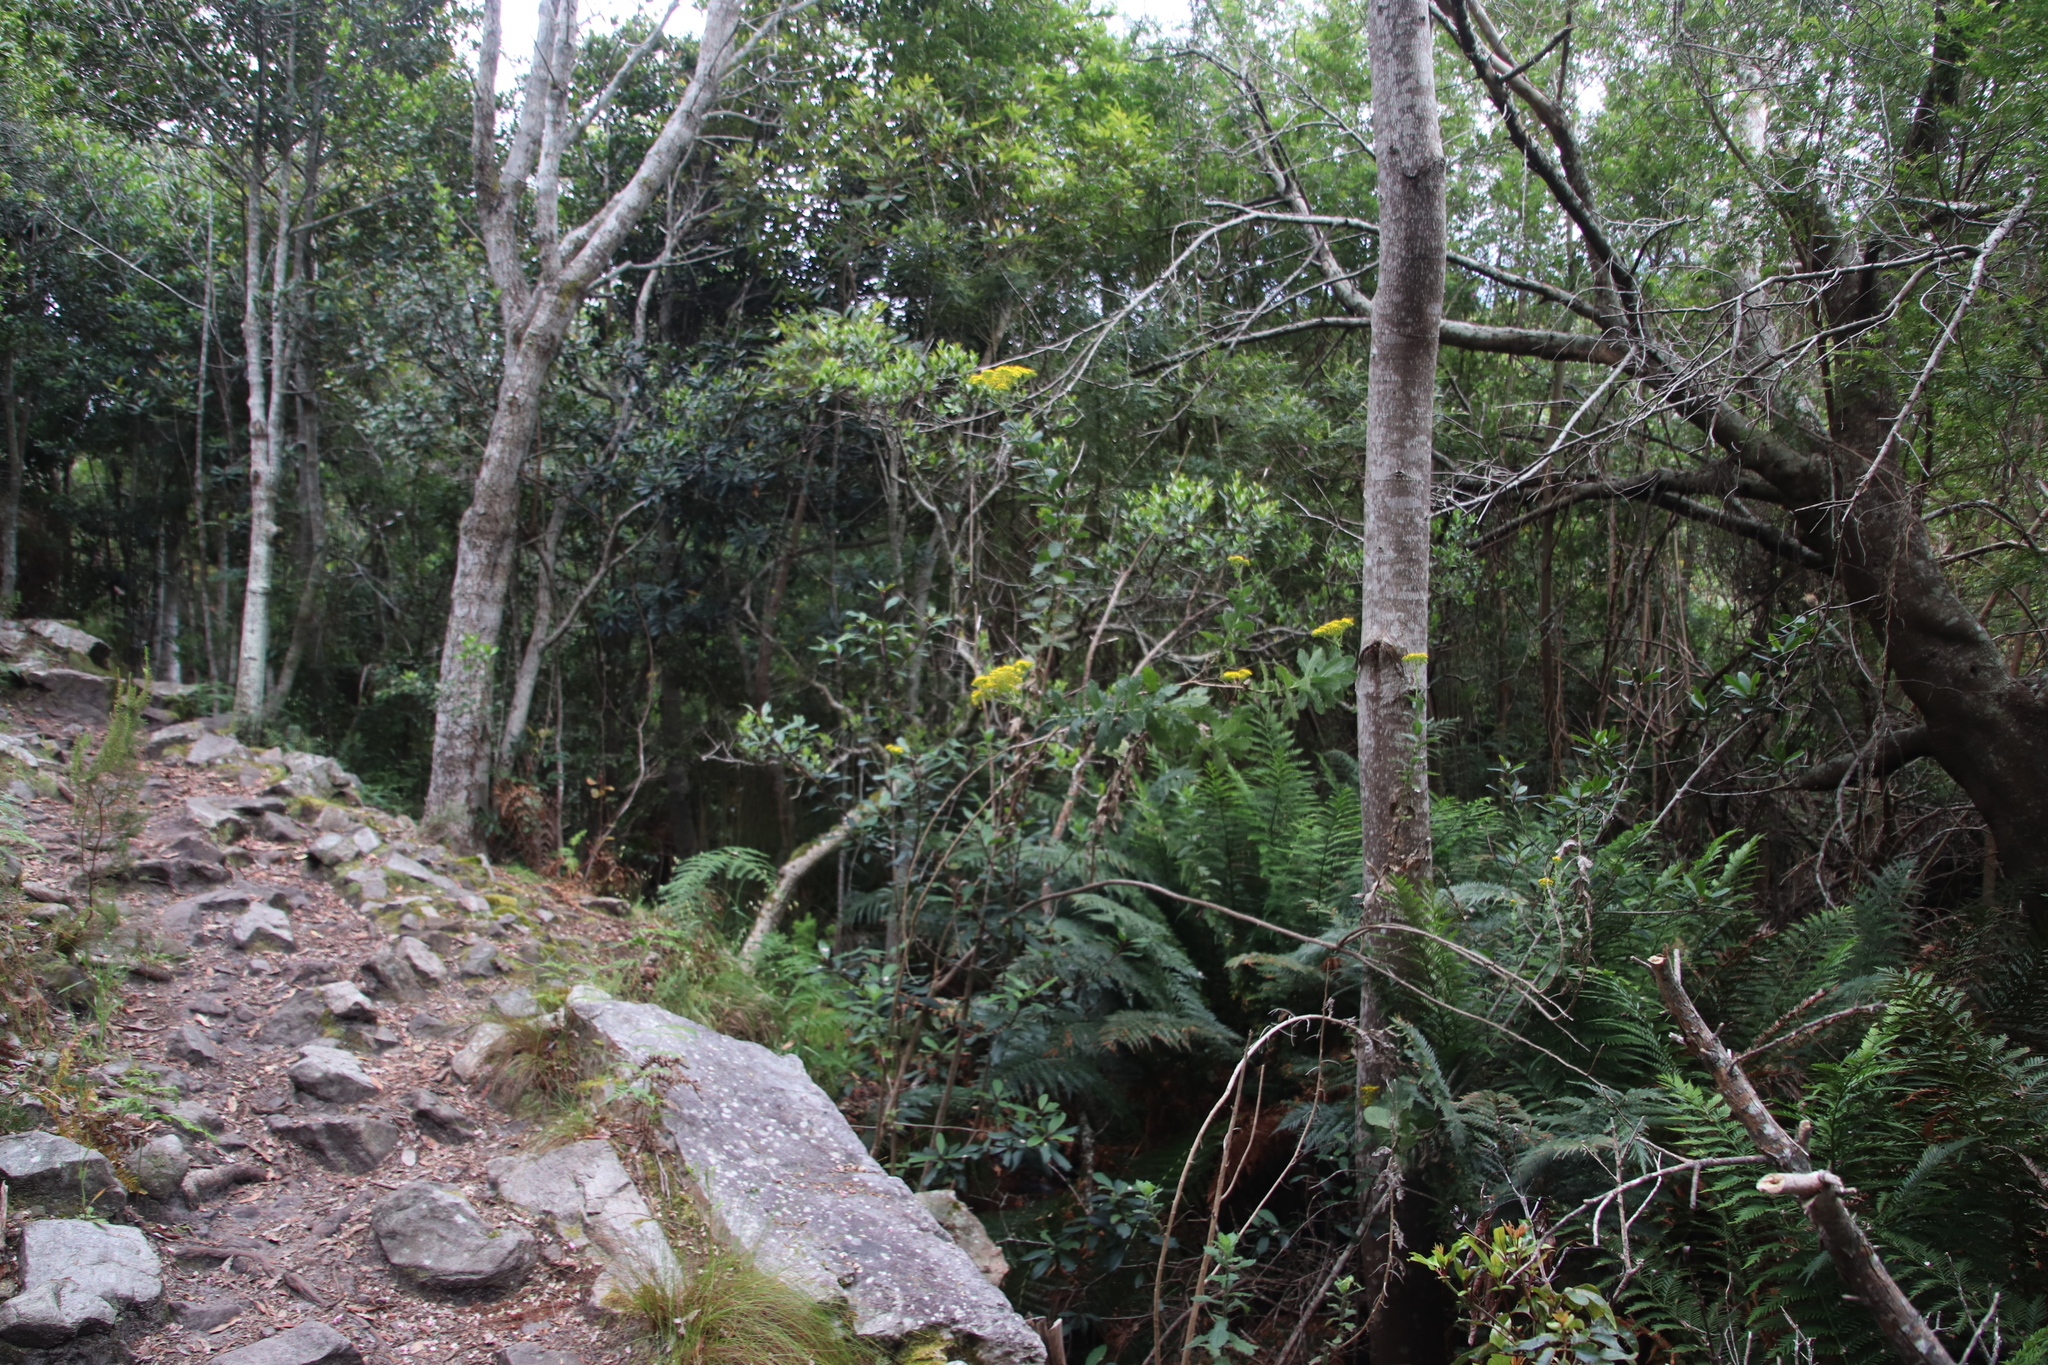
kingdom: Plantae
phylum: Tracheophyta
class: Magnoliopsida
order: Asterales
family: Asteraceae
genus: Senecio
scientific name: Senecio rigidus
